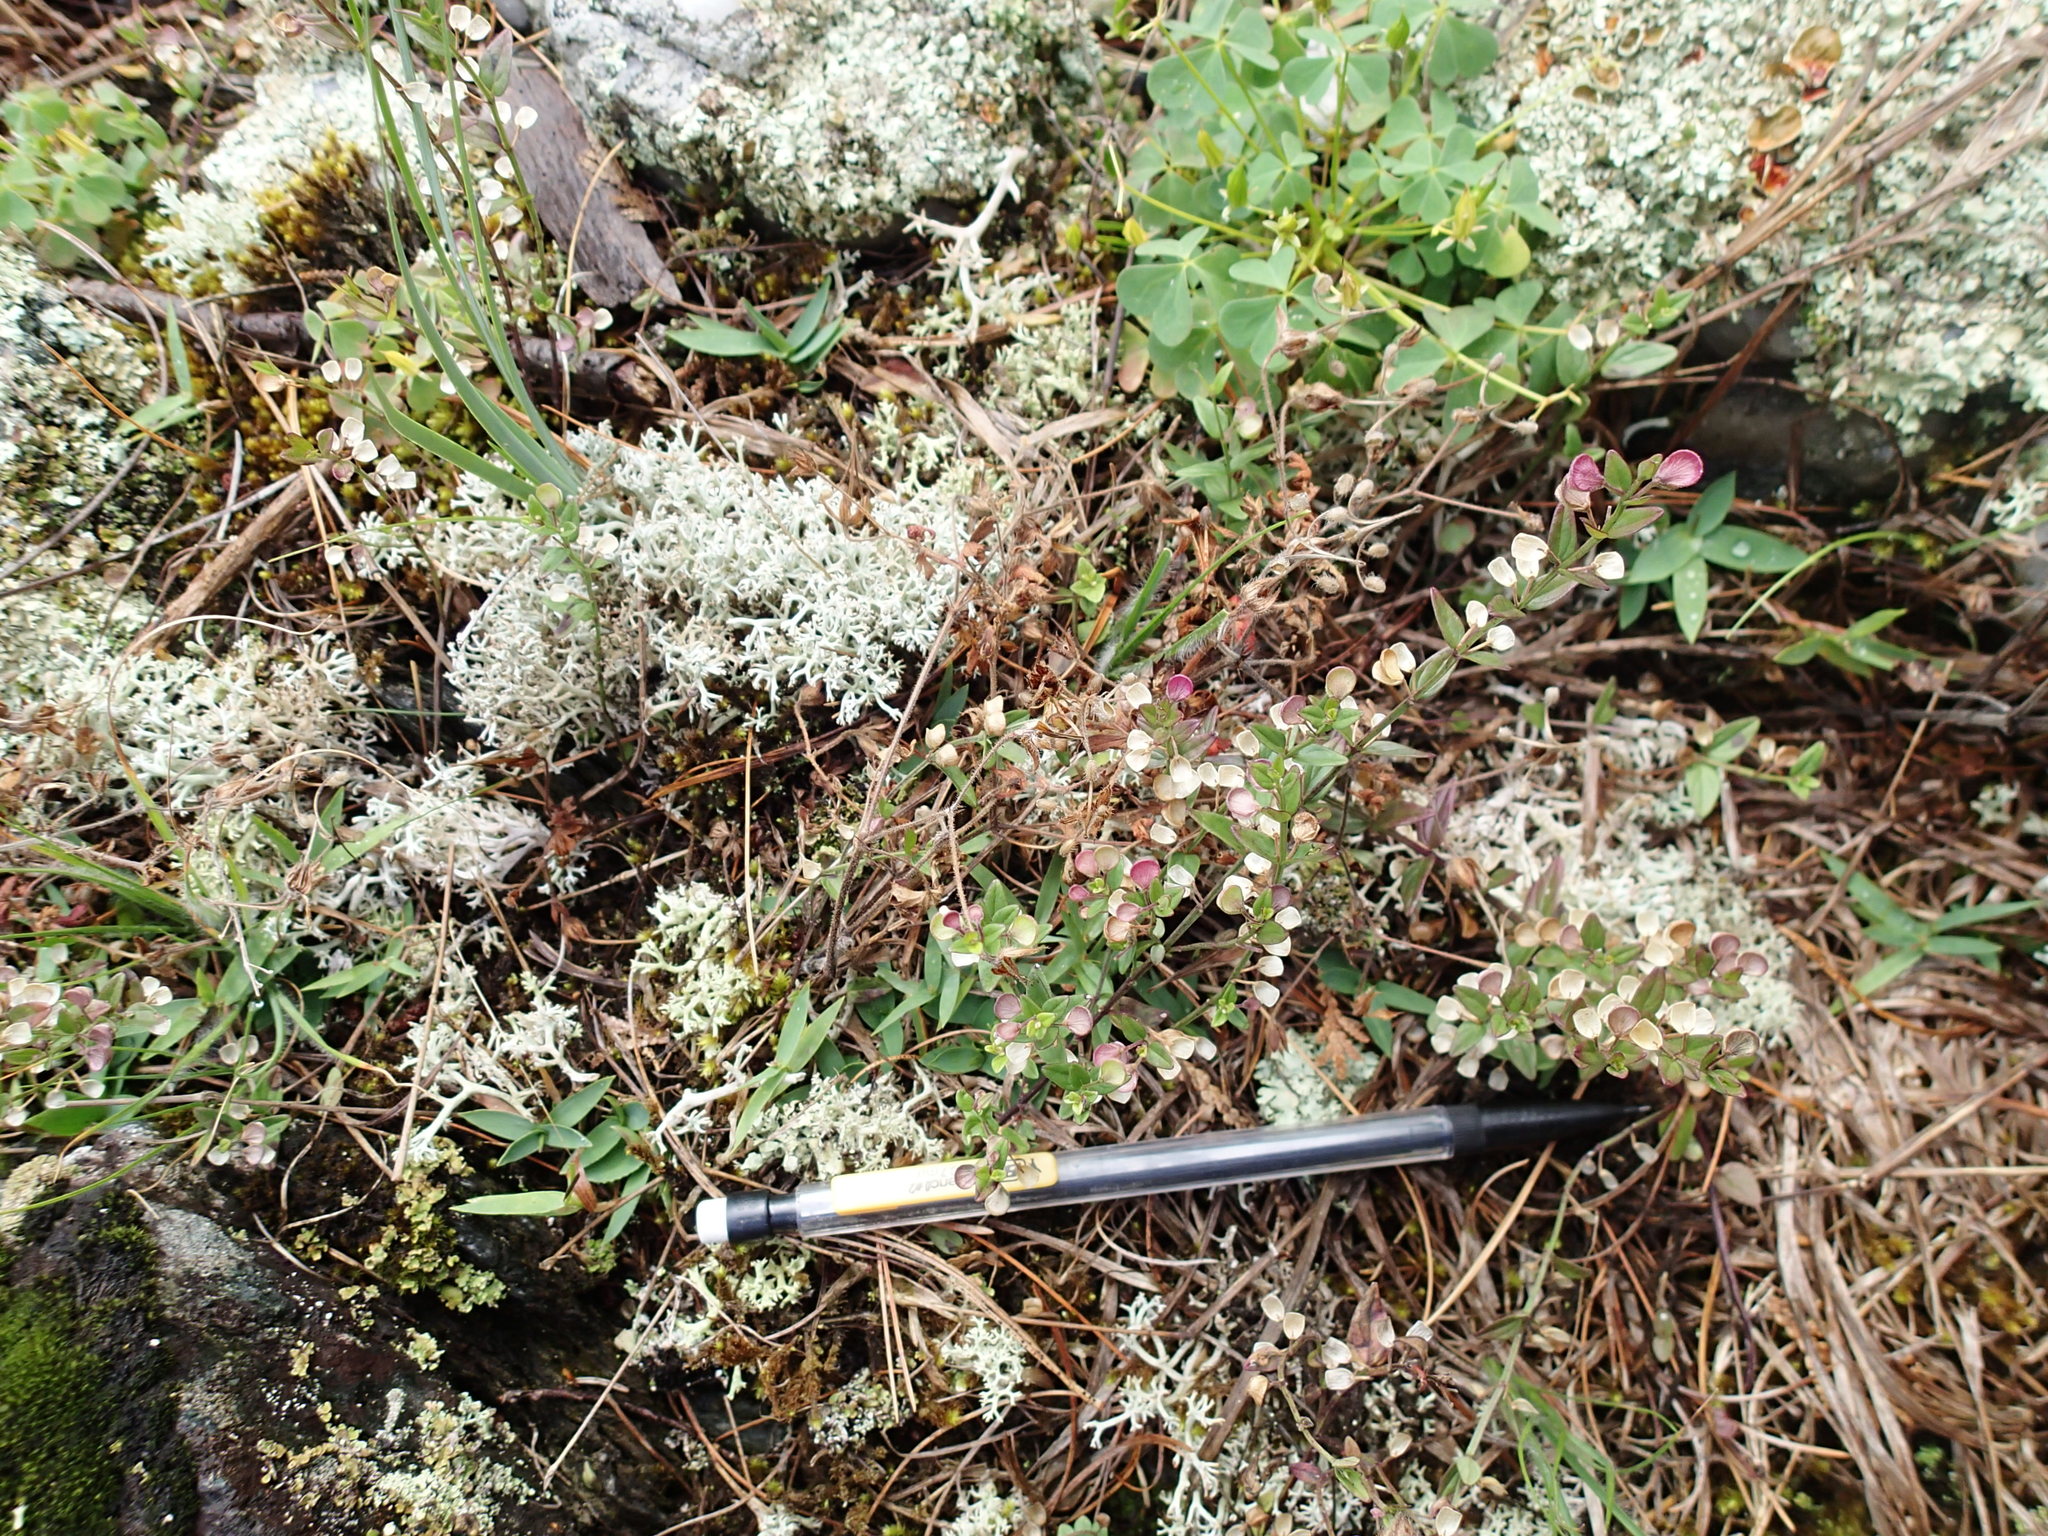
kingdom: Plantae
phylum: Tracheophyta
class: Magnoliopsida
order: Lamiales
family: Lamiaceae
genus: Scutellaria
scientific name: Scutellaria parvula
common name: Little scullcap
